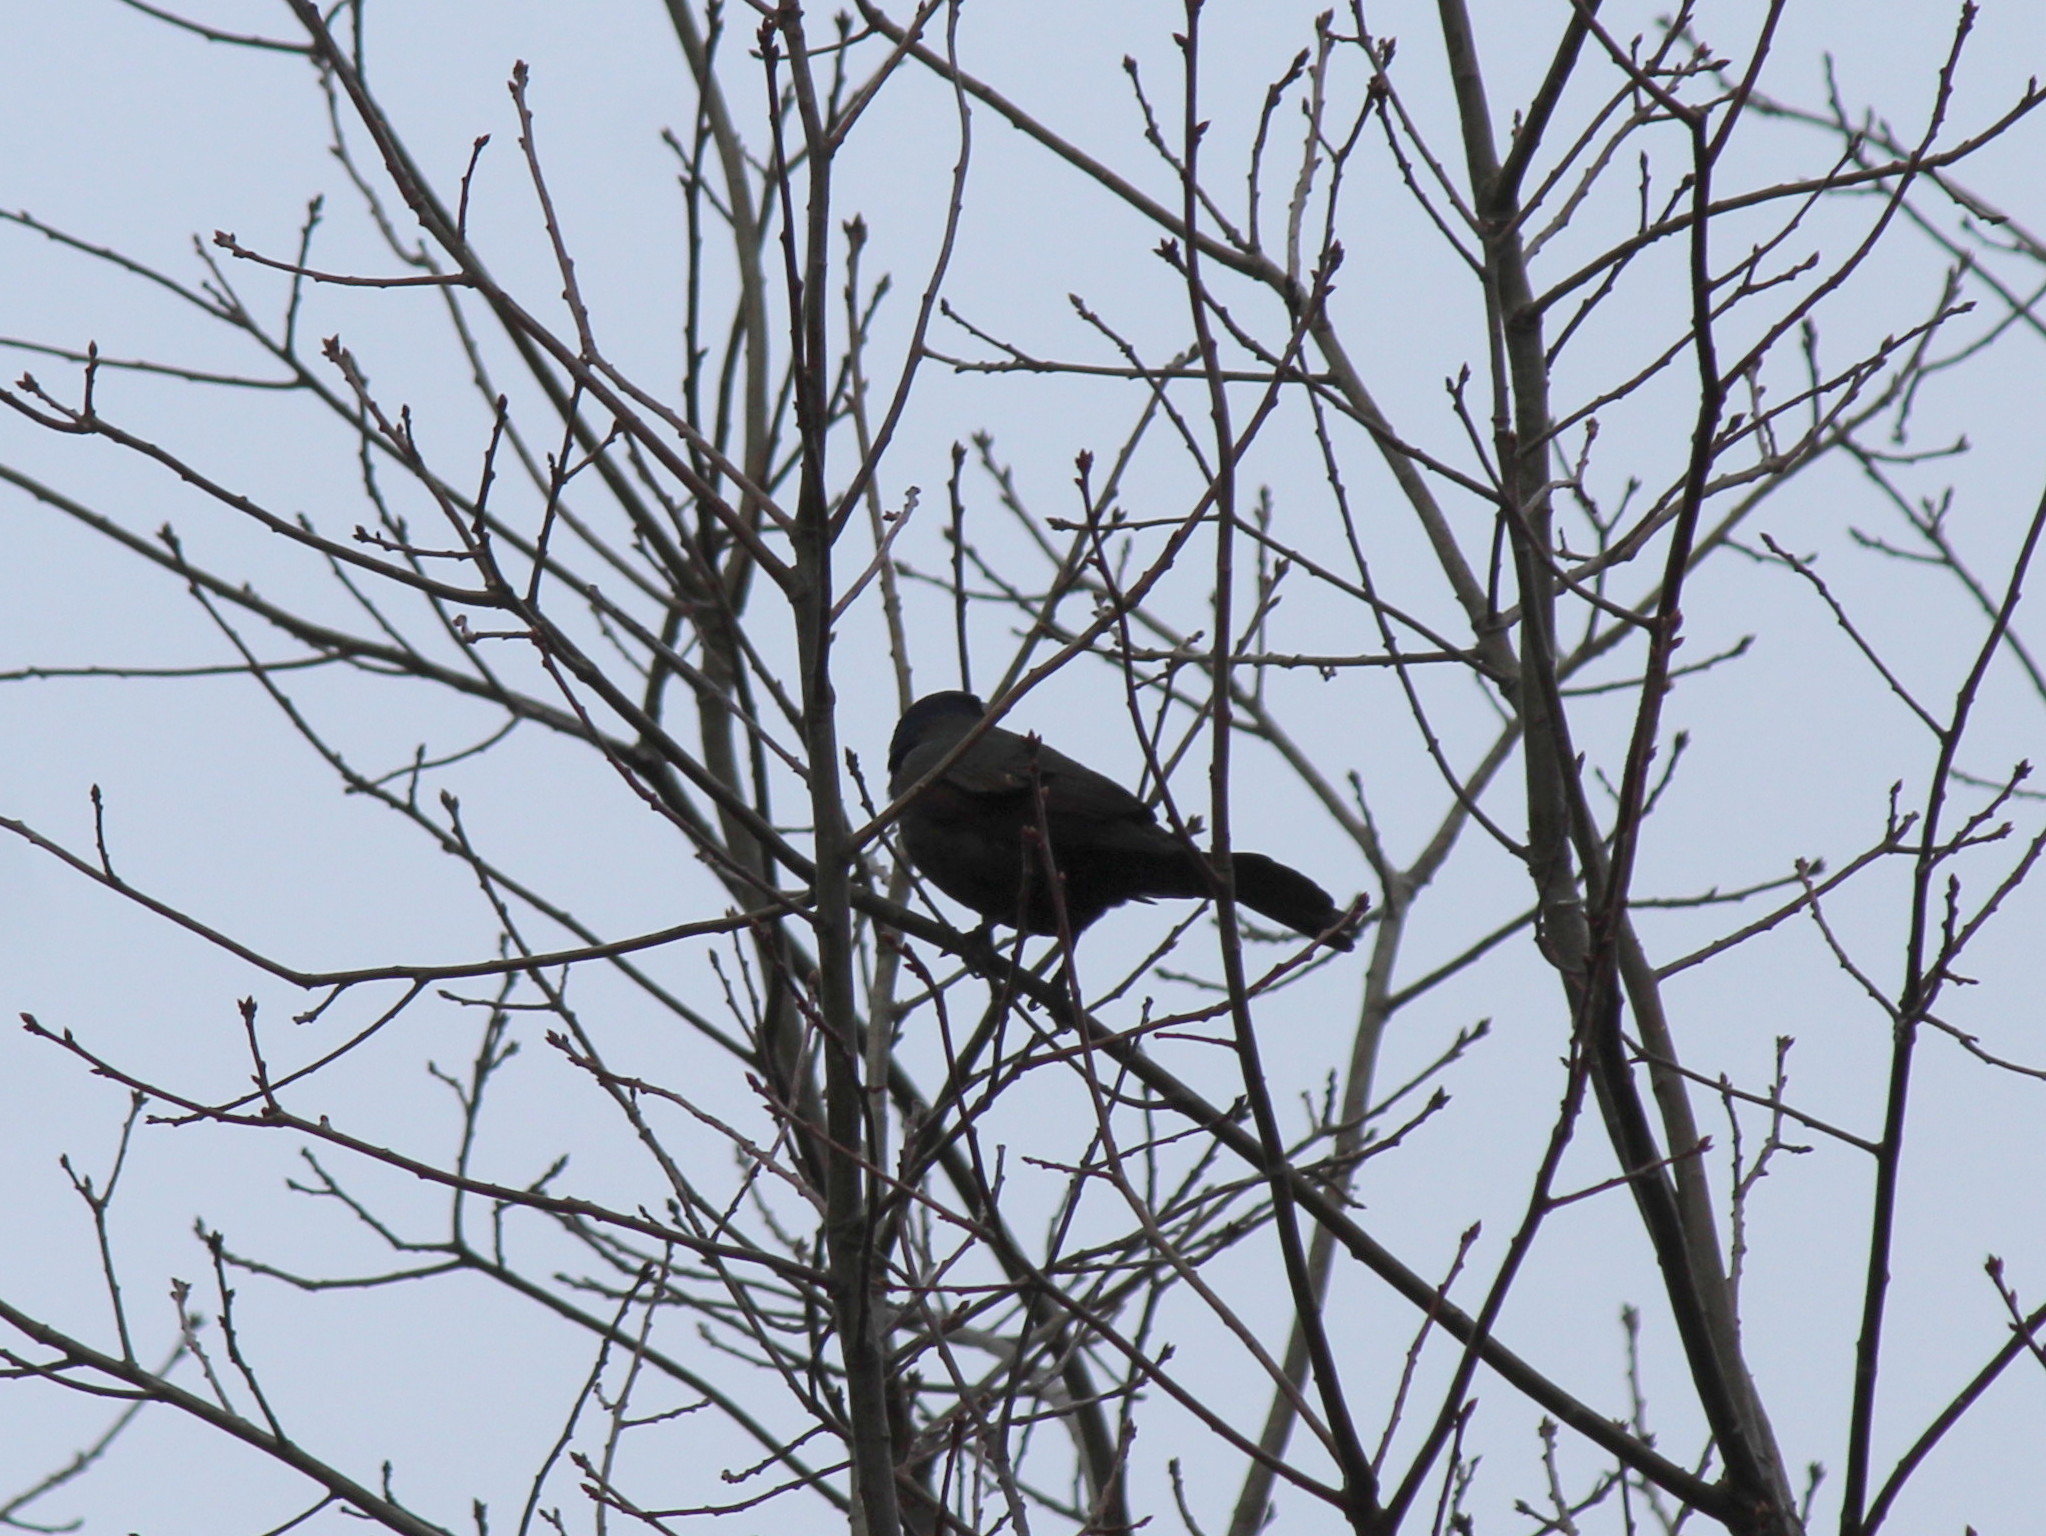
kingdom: Animalia
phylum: Chordata
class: Aves
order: Passeriformes
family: Icteridae
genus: Quiscalus
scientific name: Quiscalus quiscula
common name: Common grackle
